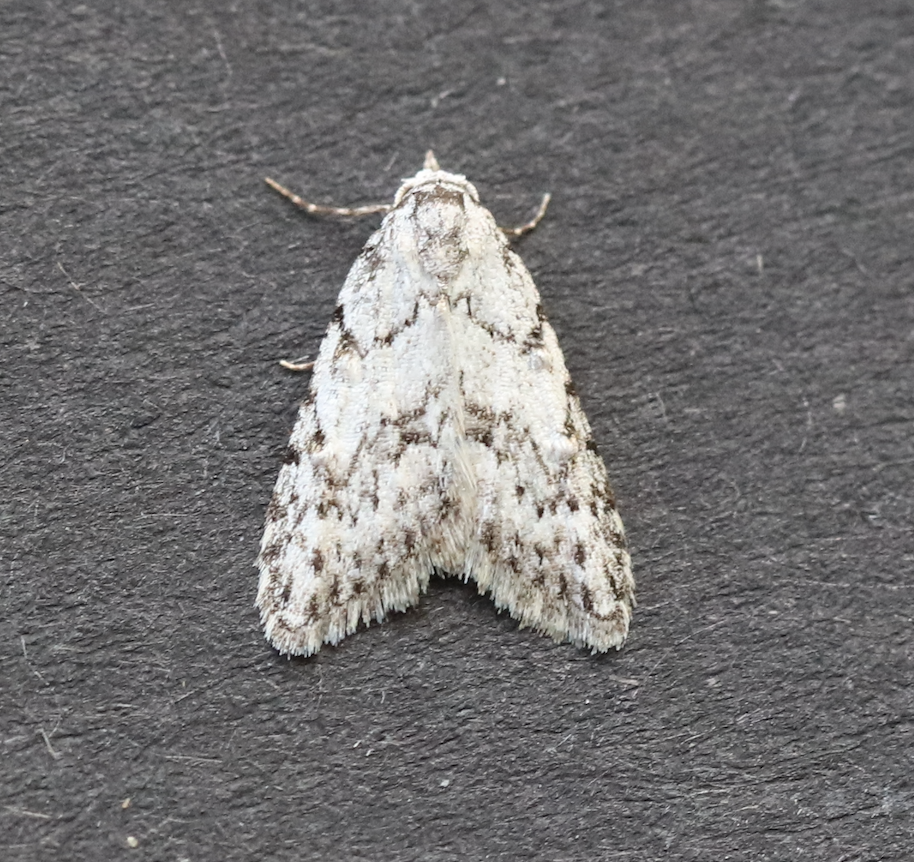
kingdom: Animalia
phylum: Arthropoda
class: Insecta
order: Lepidoptera
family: Nolidae
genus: Nola
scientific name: Nola cicatricalis
